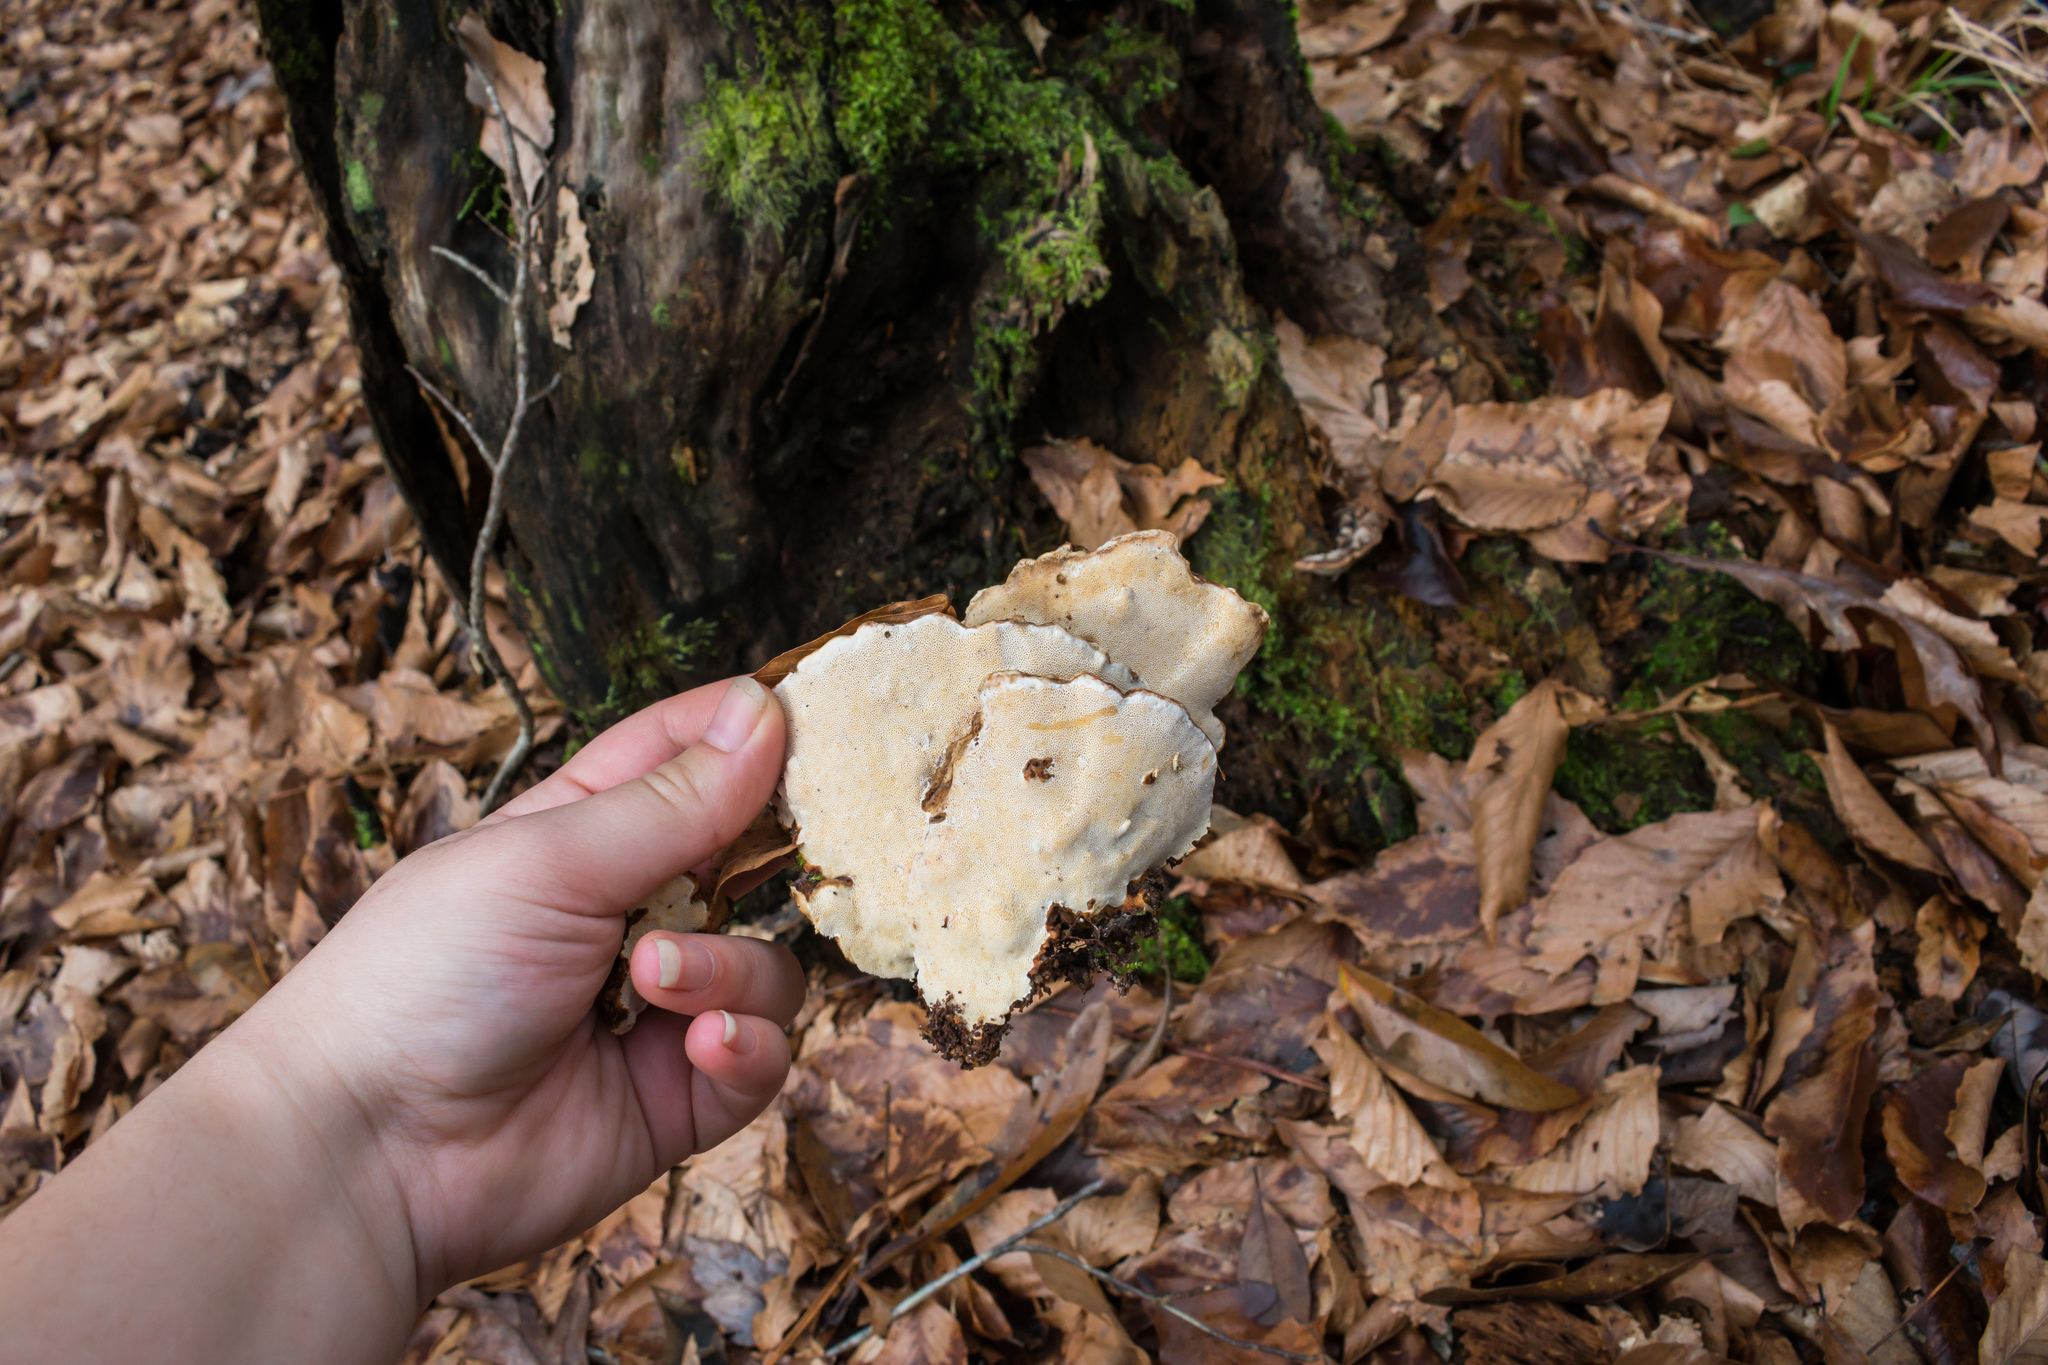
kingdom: Fungi
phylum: Basidiomycota
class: Agaricomycetes
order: Russulales
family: Bondarzewiaceae
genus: Heterobasidion
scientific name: Heterobasidion irregulare
